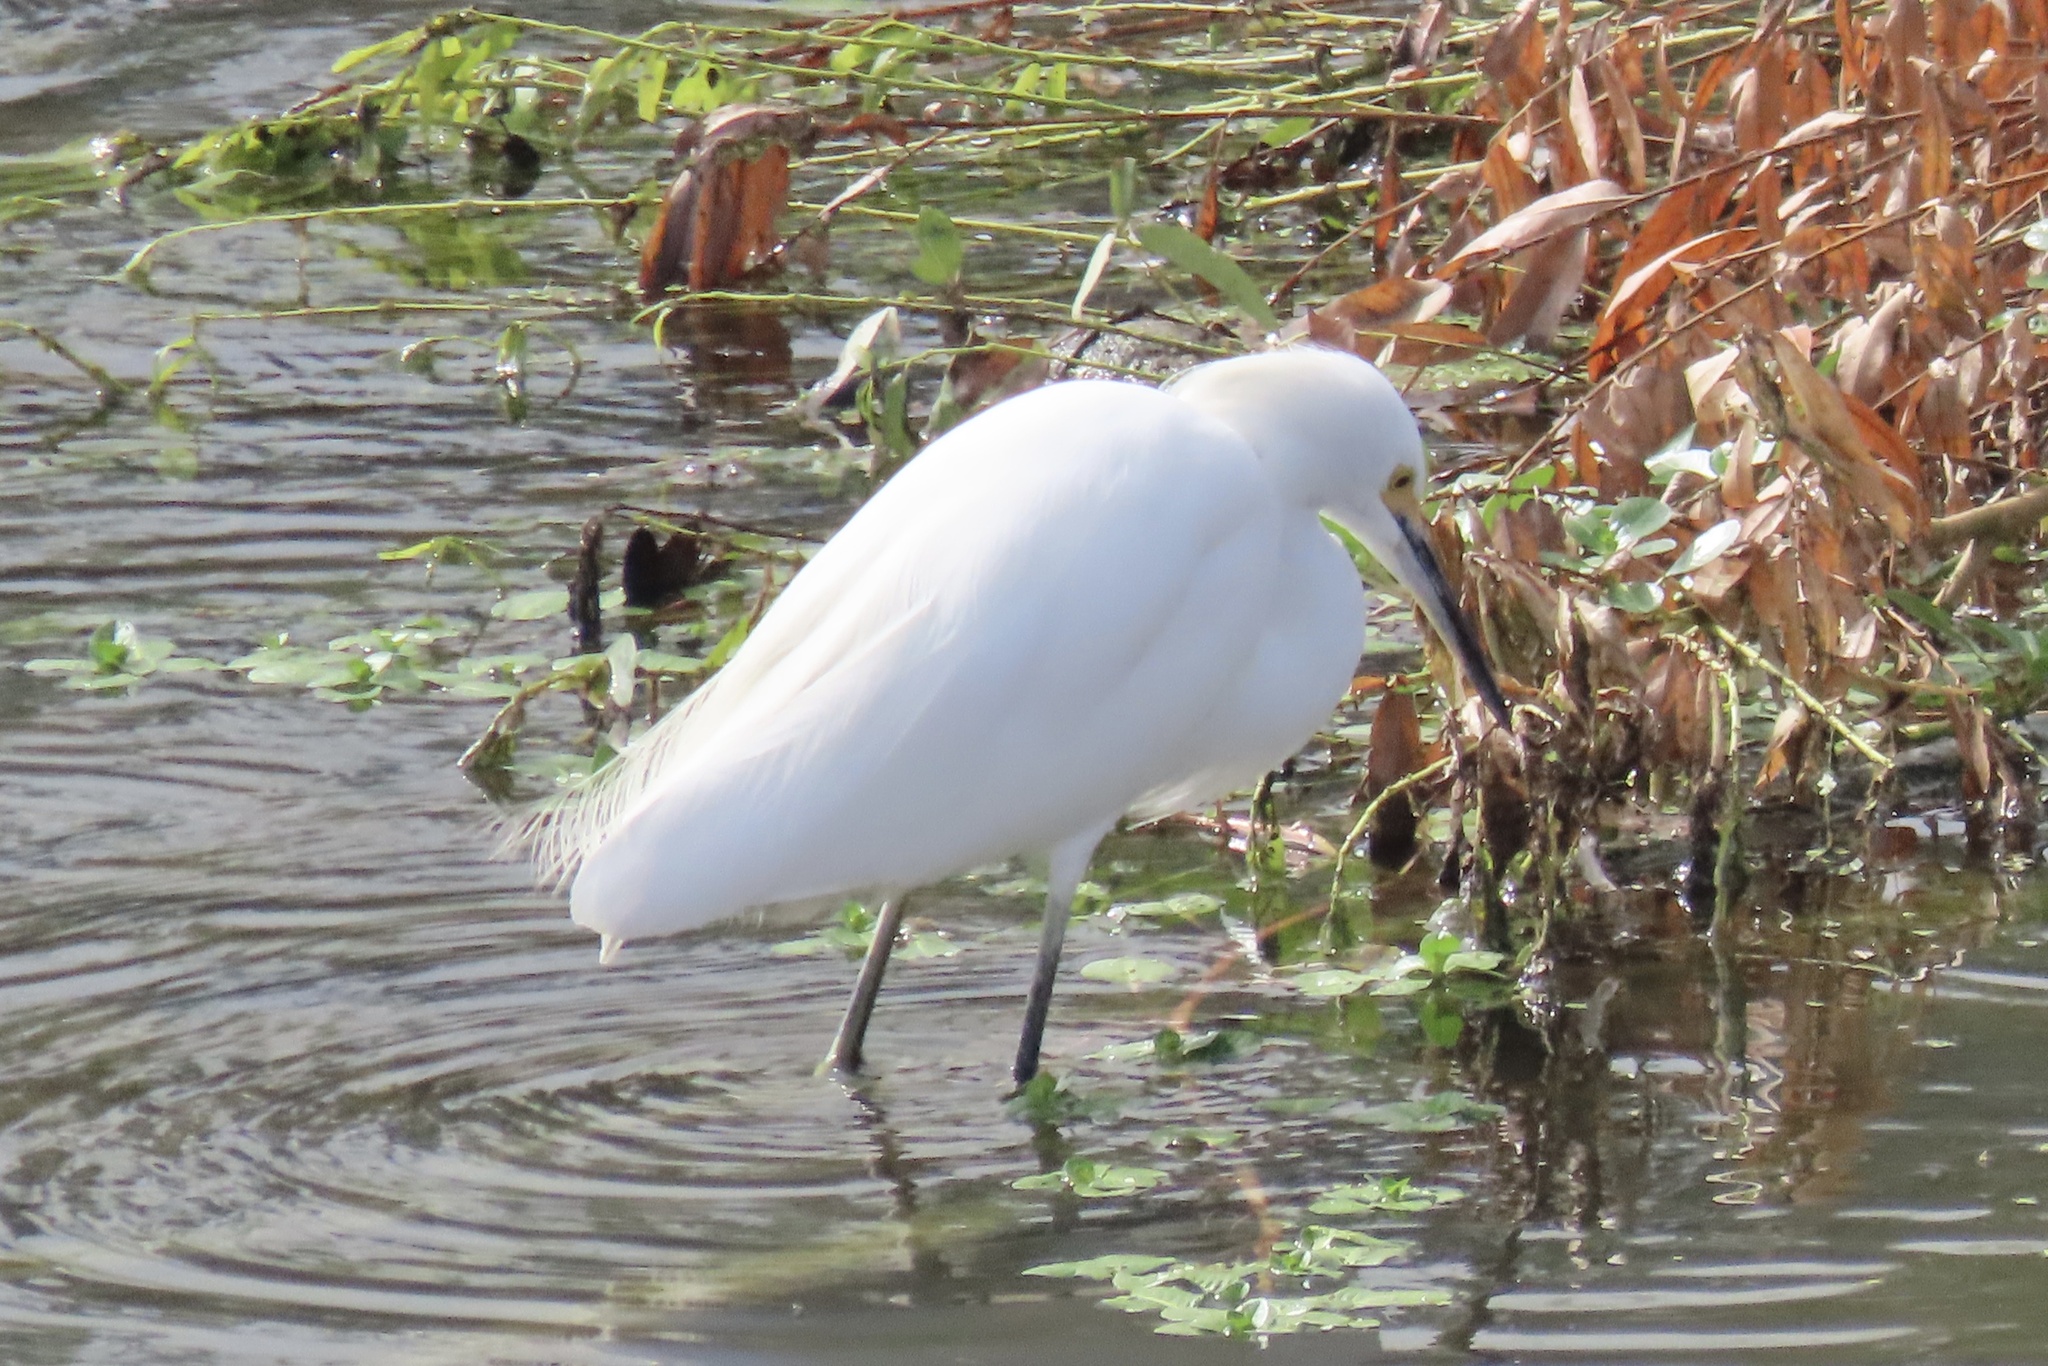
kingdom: Animalia
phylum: Chordata
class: Aves
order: Pelecaniformes
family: Ardeidae
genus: Egretta
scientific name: Egretta thula
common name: Snowy egret
